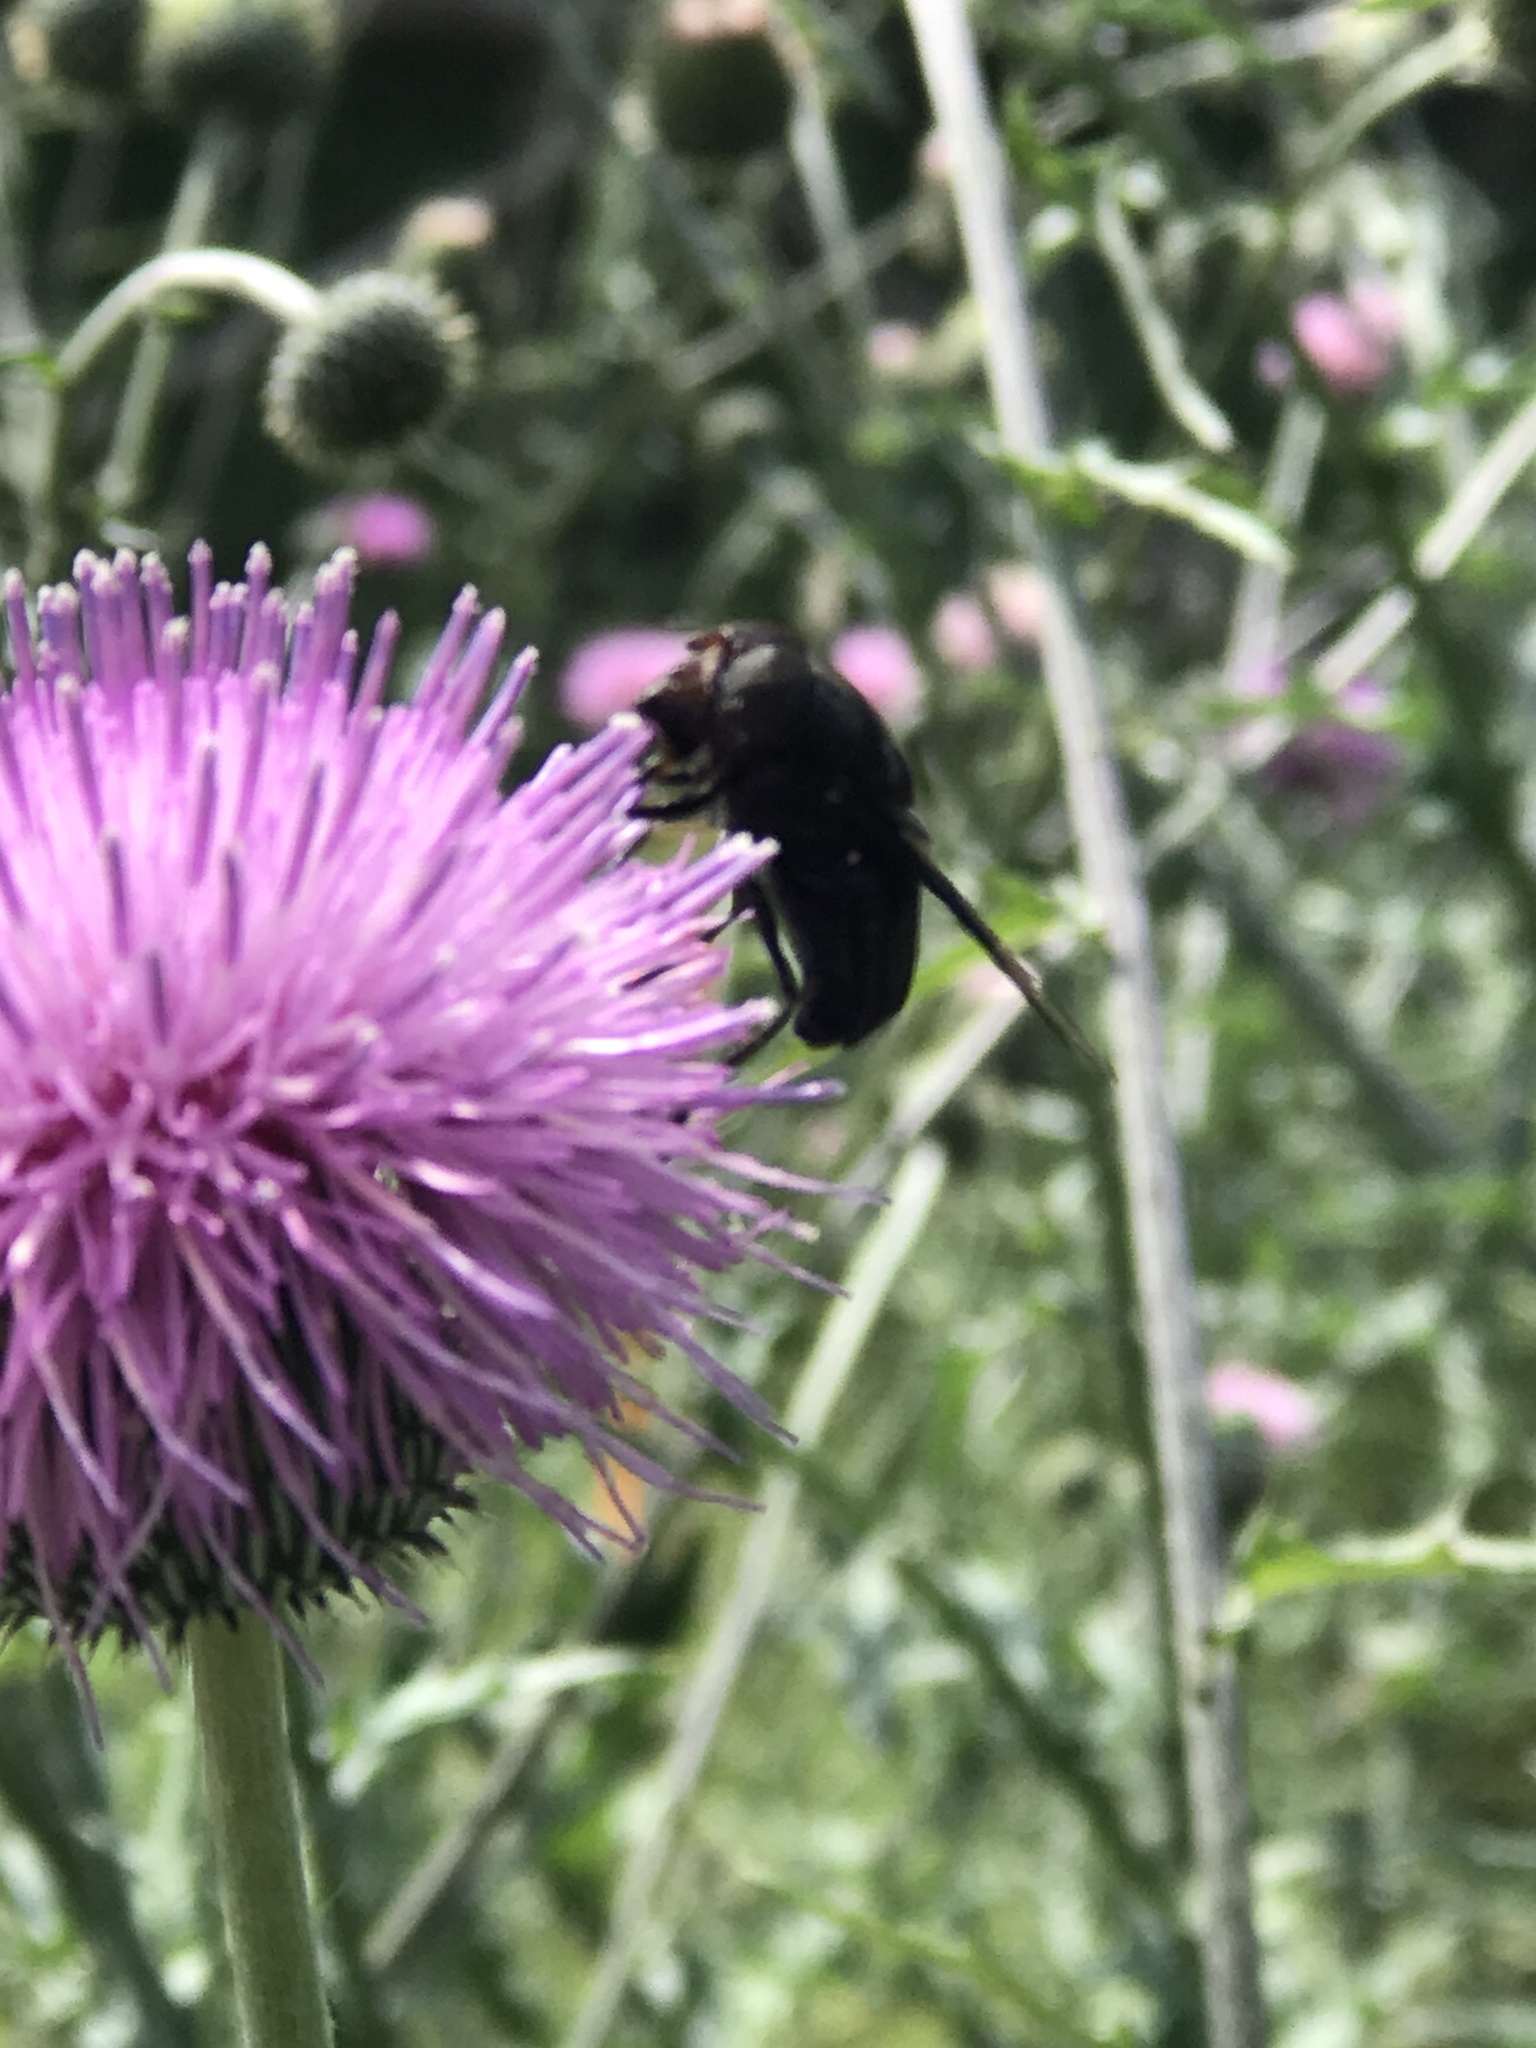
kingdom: Animalia
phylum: Arthropoda
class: Insecta
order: Diptera
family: Syrphidae
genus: Copestylum
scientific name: Copestylum mexicanum
